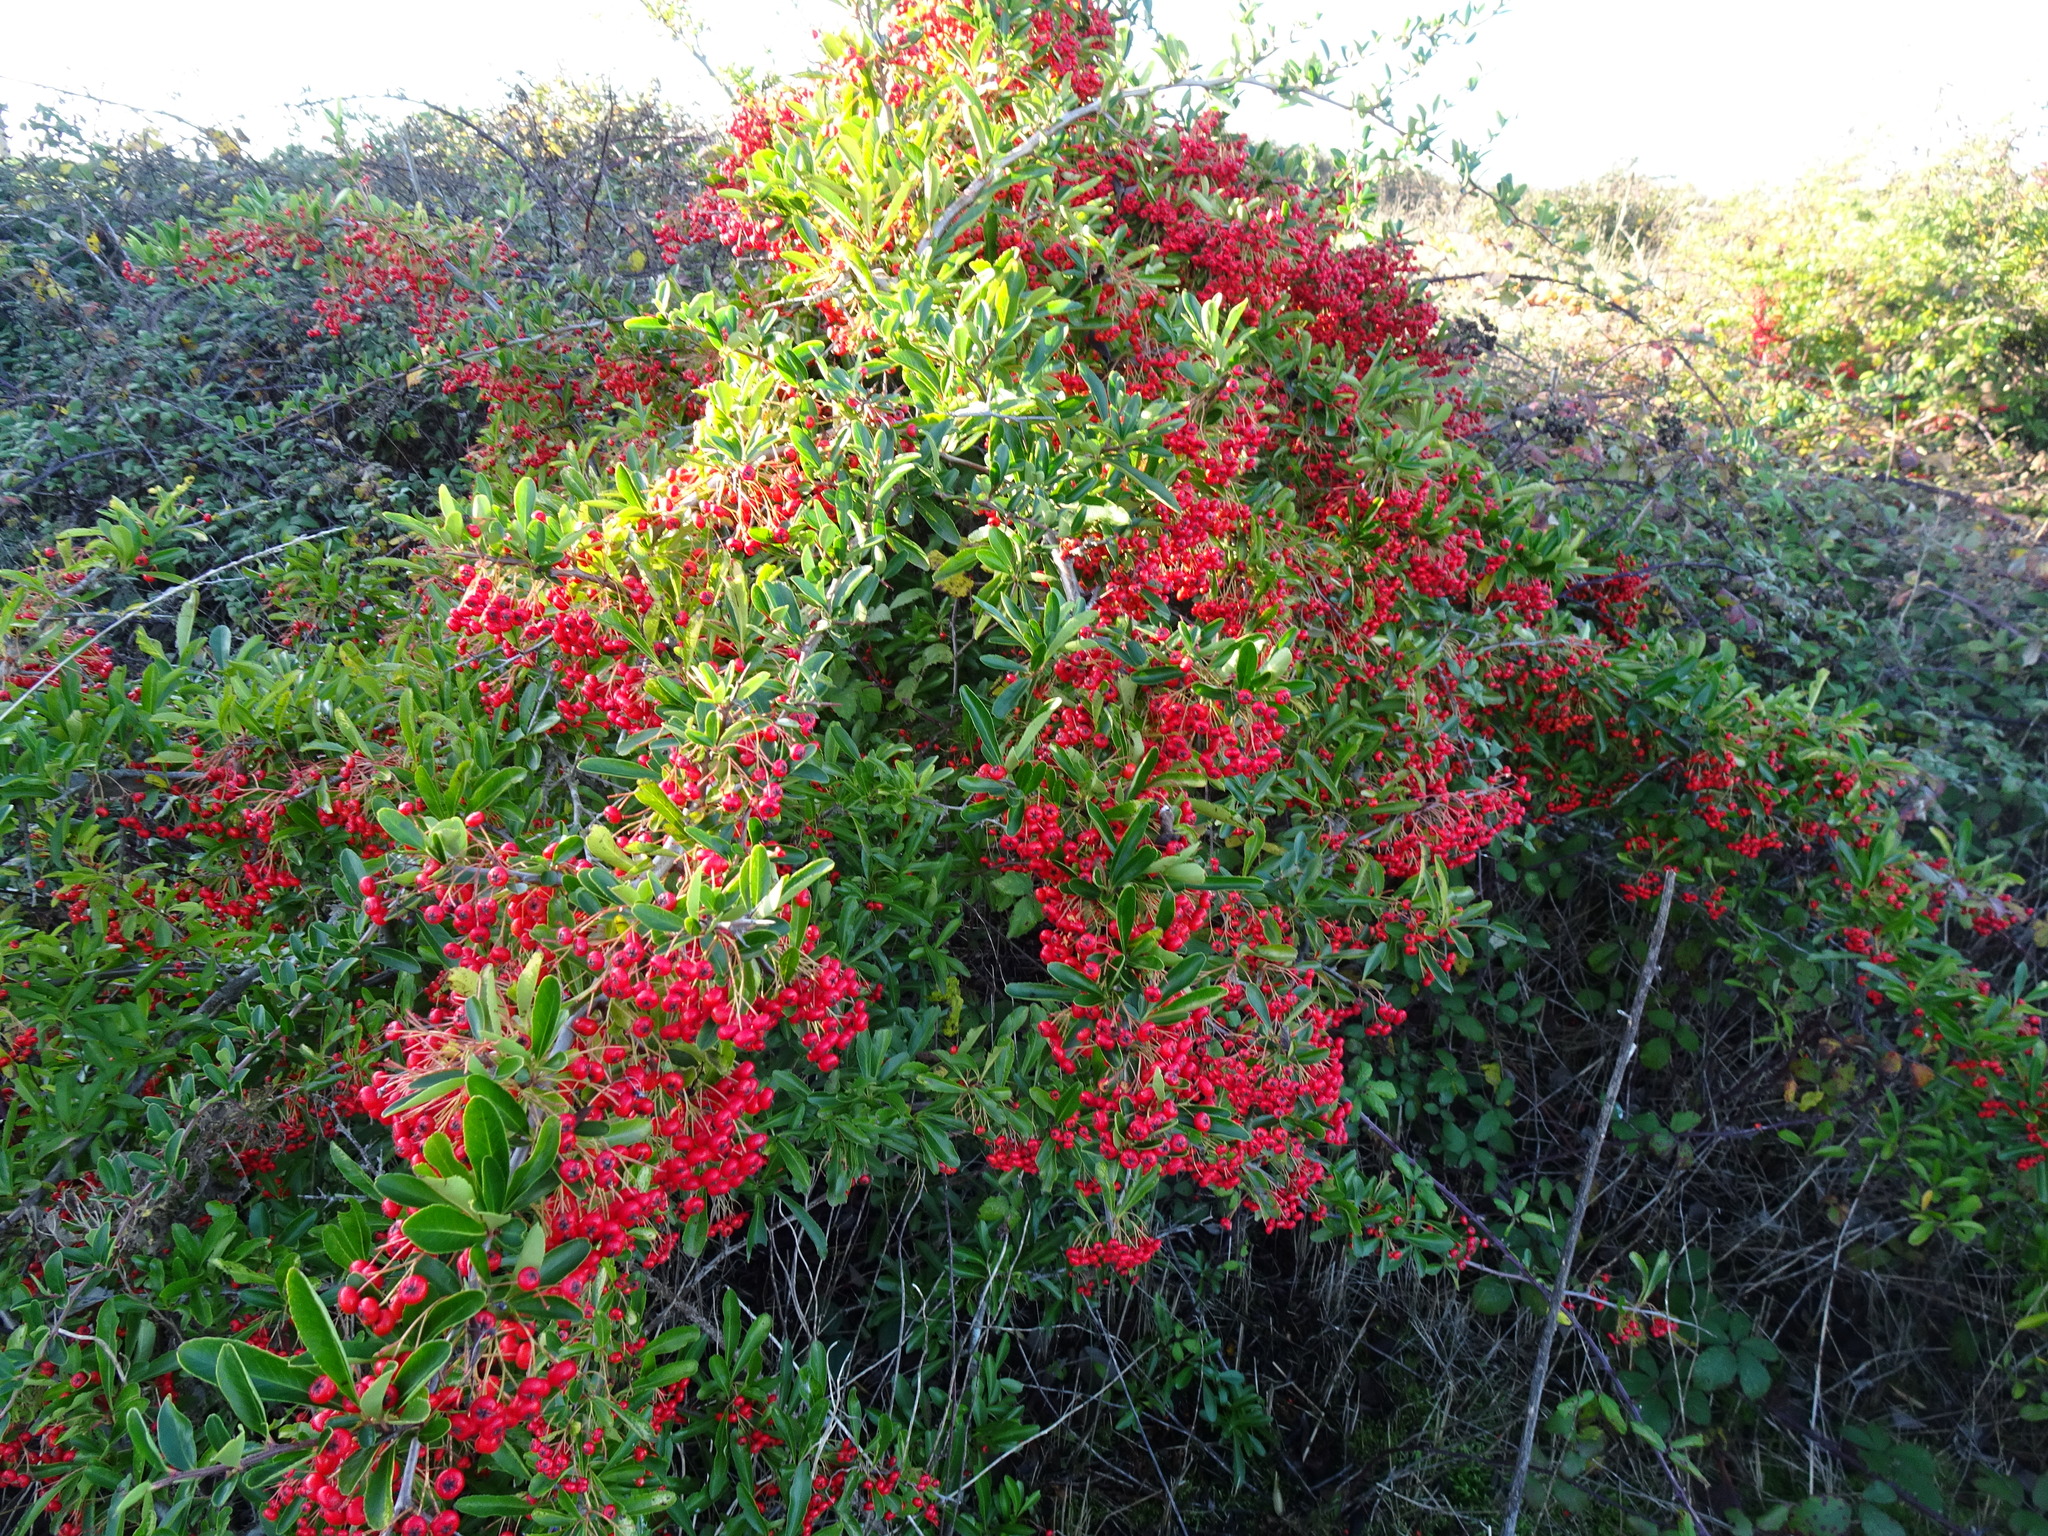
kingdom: Plantae
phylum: Tracheophyta
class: Magnoliopsida
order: Rosales
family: Rosaceae
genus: Pyracantha
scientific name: Pyracantha coccinea
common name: Firethorn
